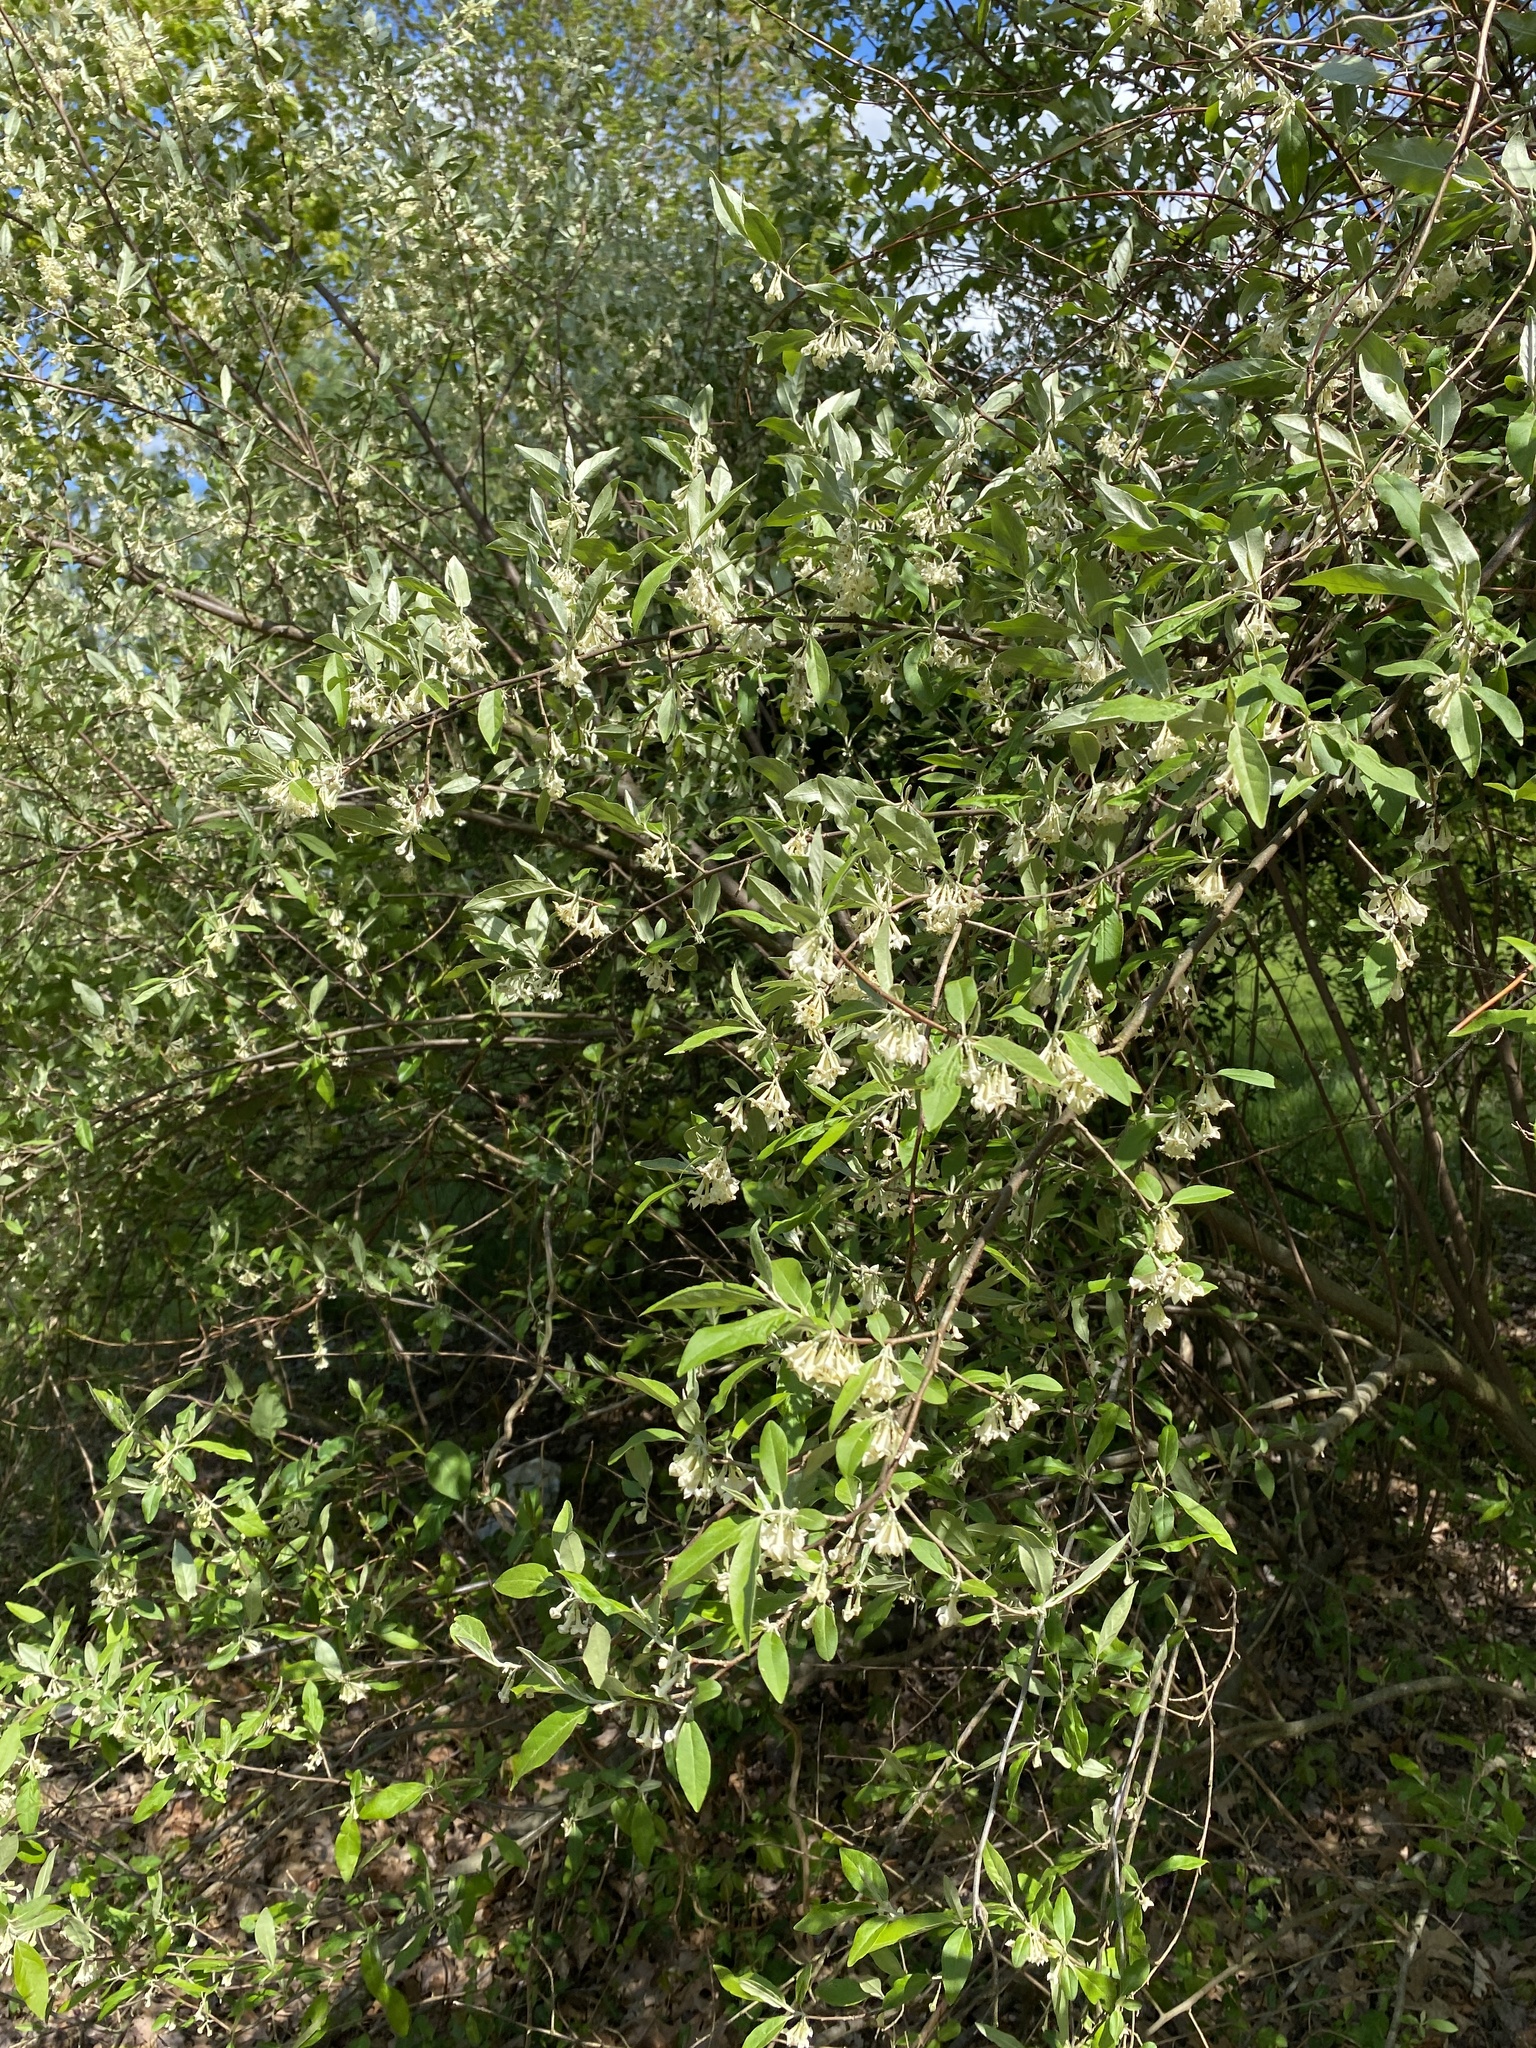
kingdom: Plantae
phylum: Tracheophyta
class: Magnoliopsida
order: Rosales
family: Elaeagnaceae
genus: Elaeagnus
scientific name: Elaeagnus umbellata
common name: Autumn olive
